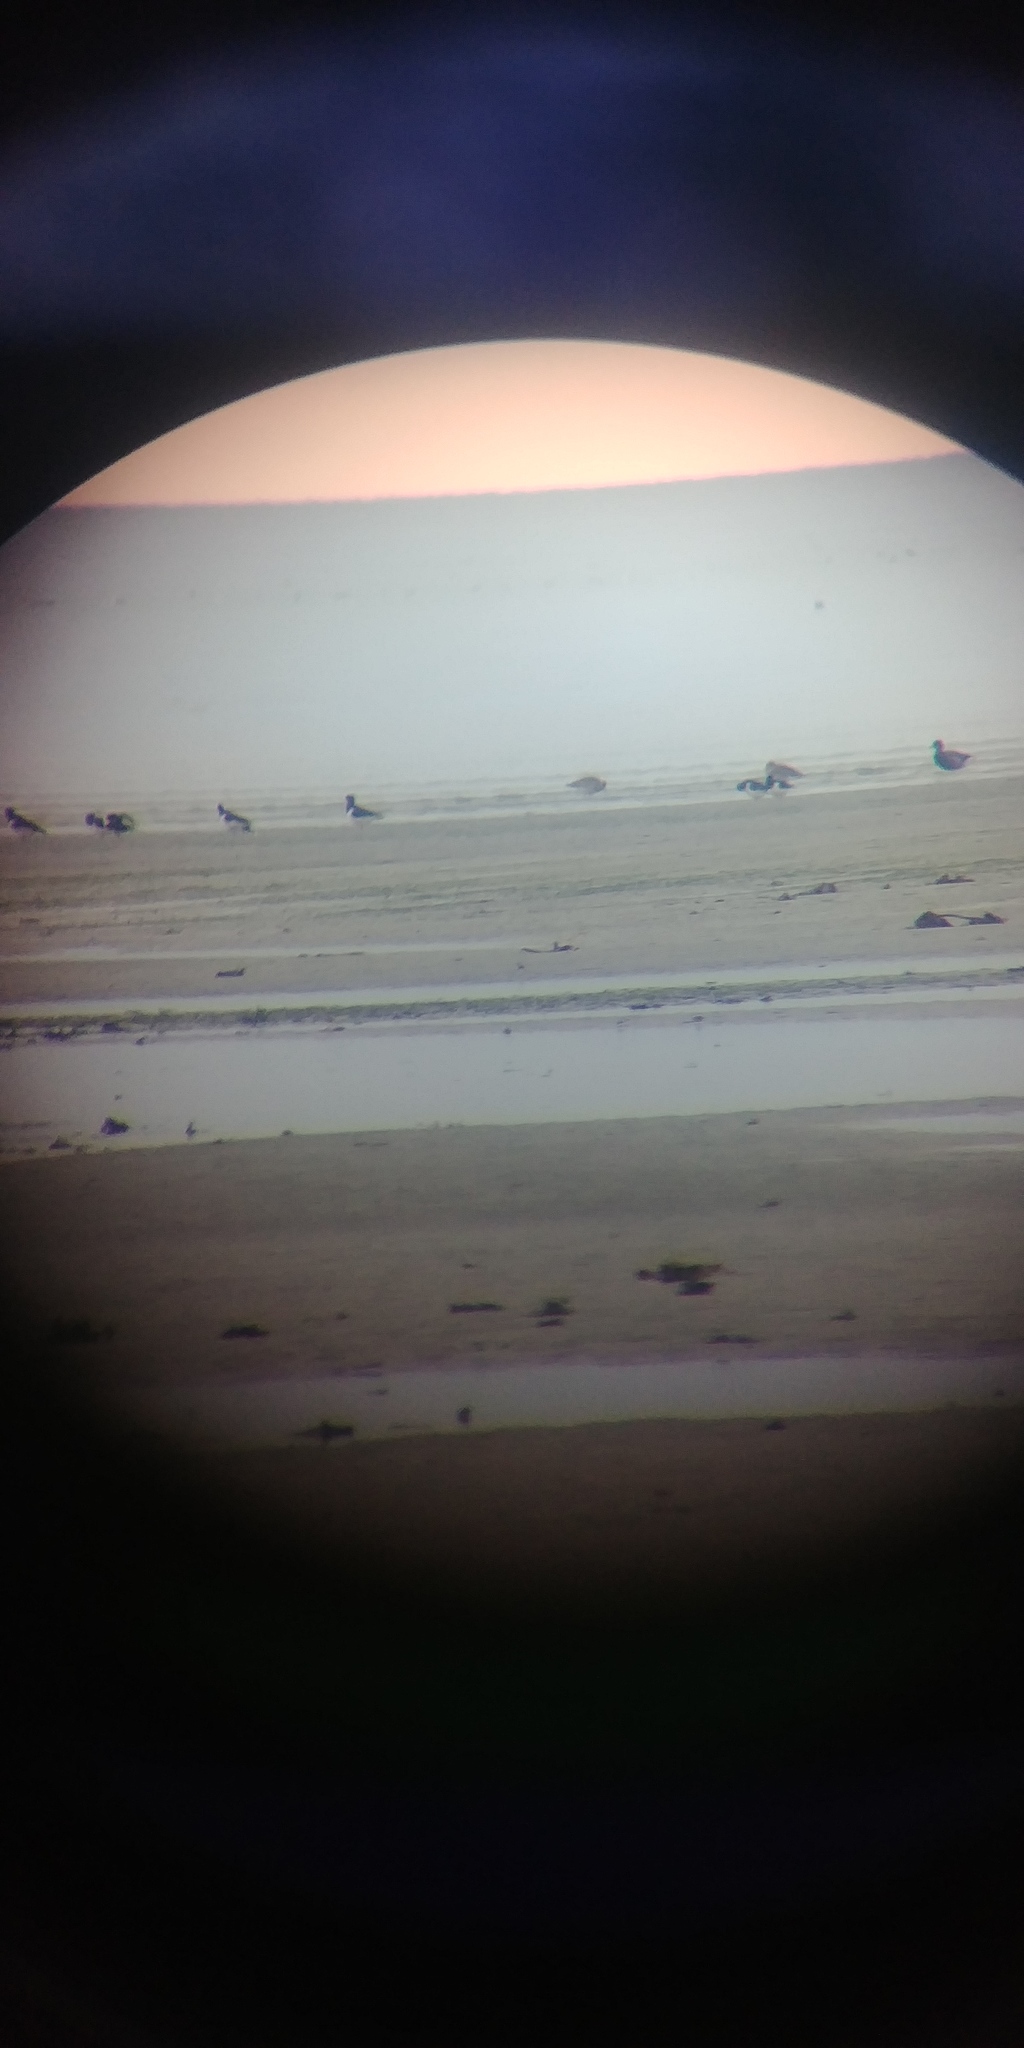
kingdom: Animalia
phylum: Chordata
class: Aves
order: Charadriiformes
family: Haematopodidae
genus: Haematopus
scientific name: Haematopus ostralegus
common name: Eurasian oystercatcher
